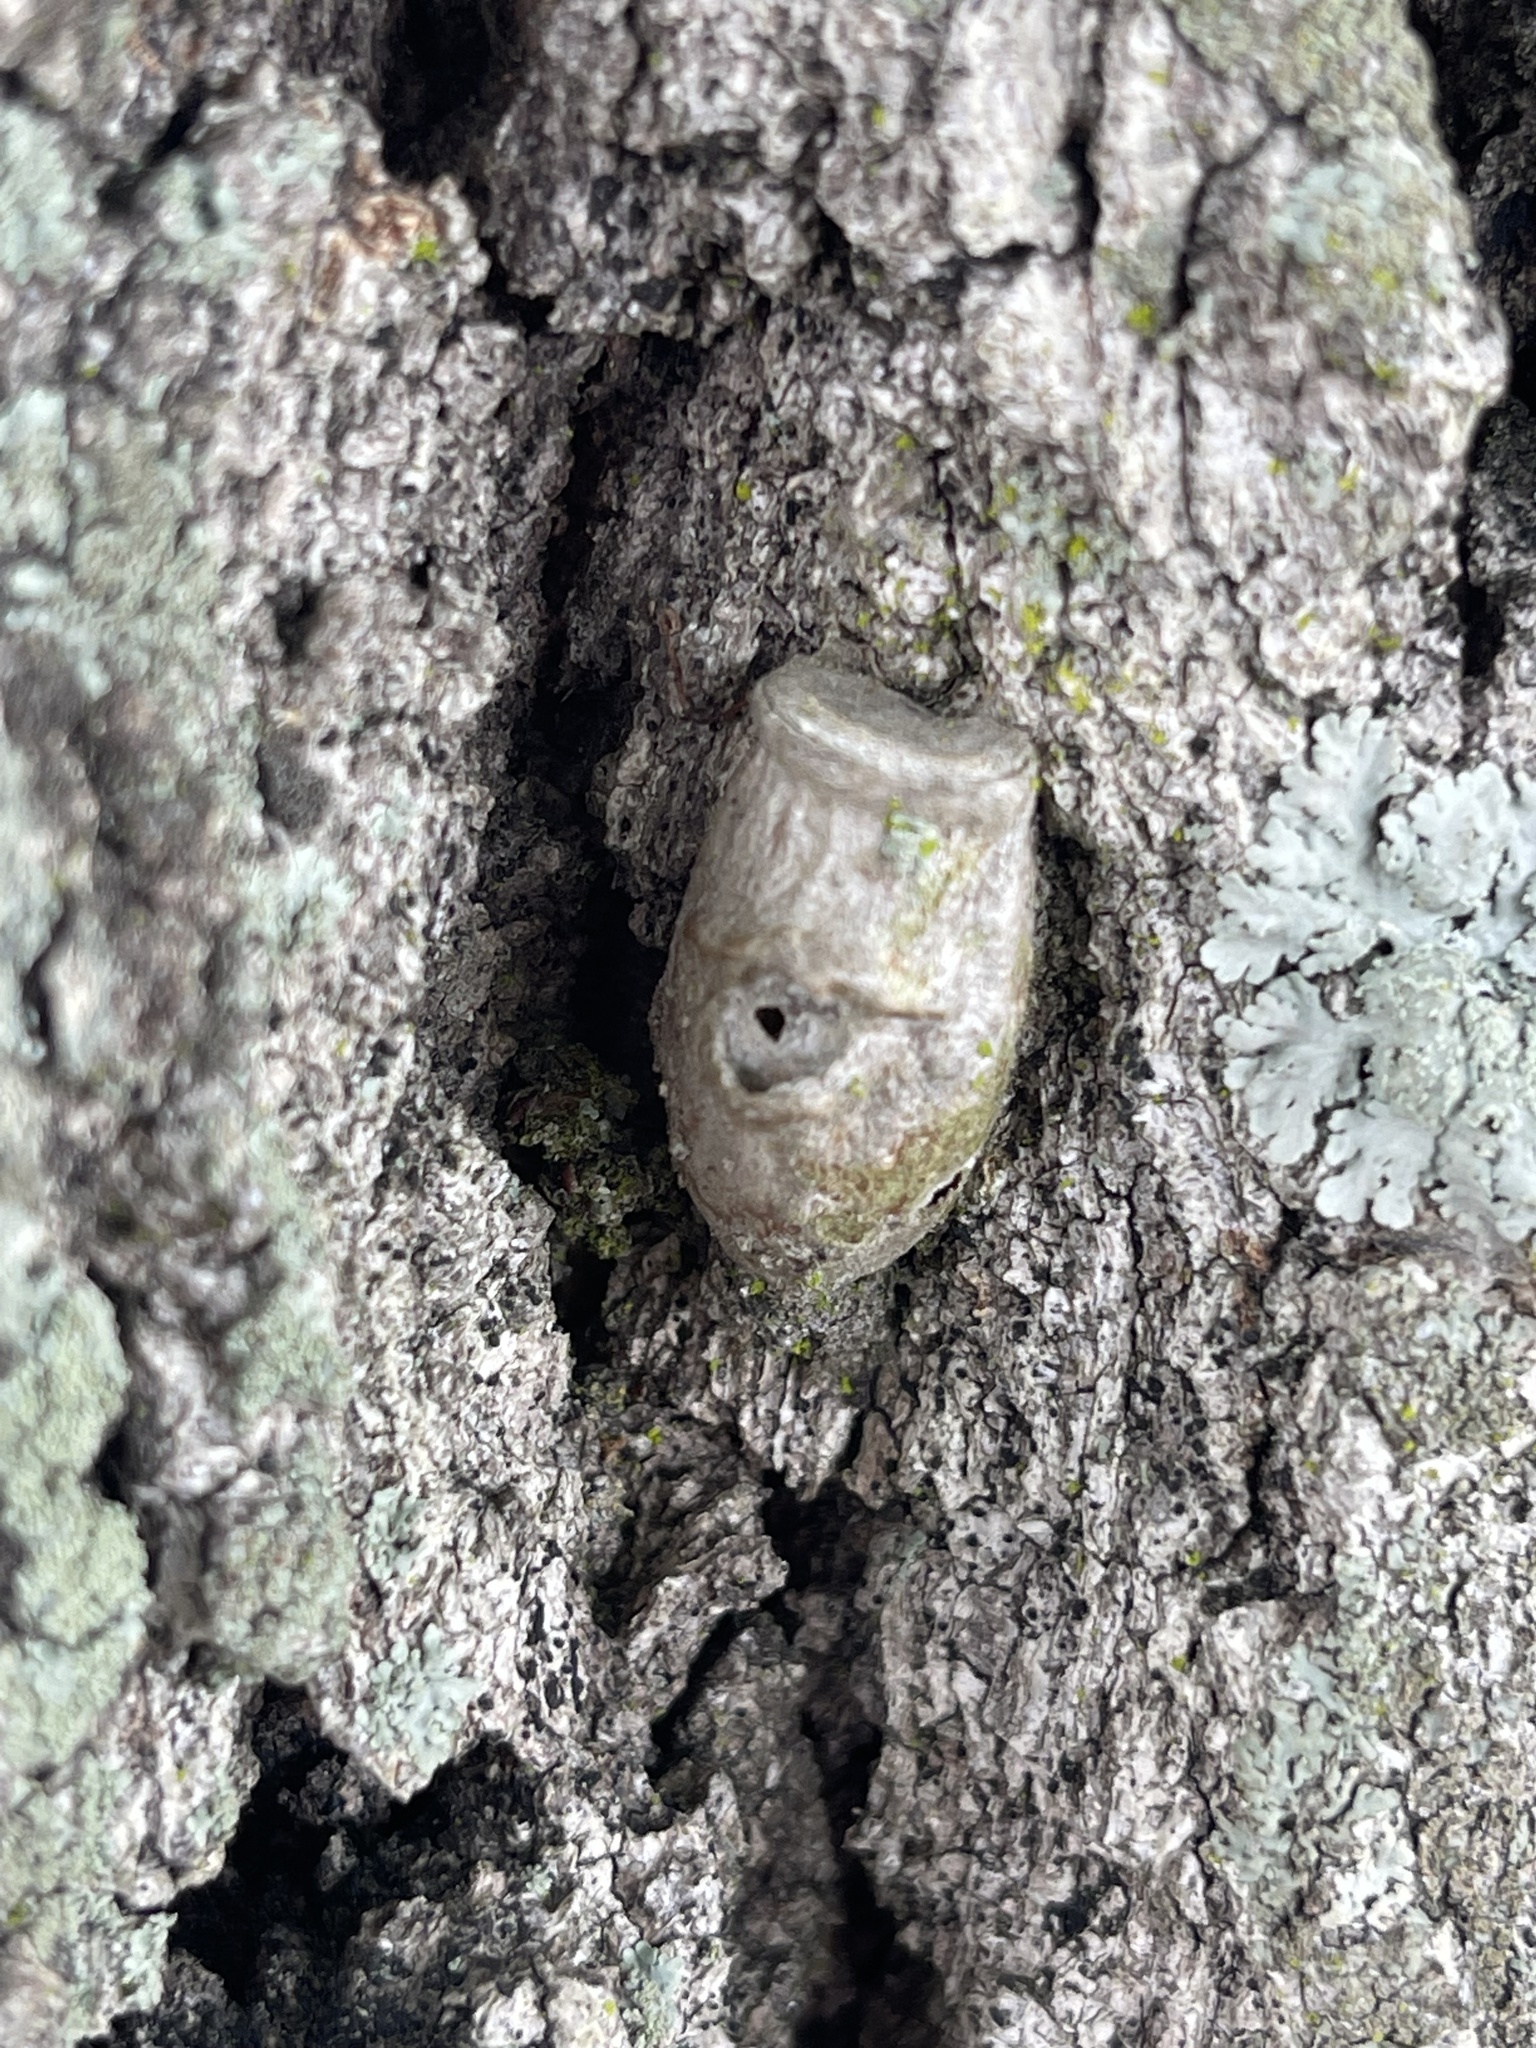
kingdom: Animalia
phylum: Arthropoda
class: Insecta
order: Lepidoptera
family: Megalopygidae
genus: Megalopyge
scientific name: Megalopyge opercularis
